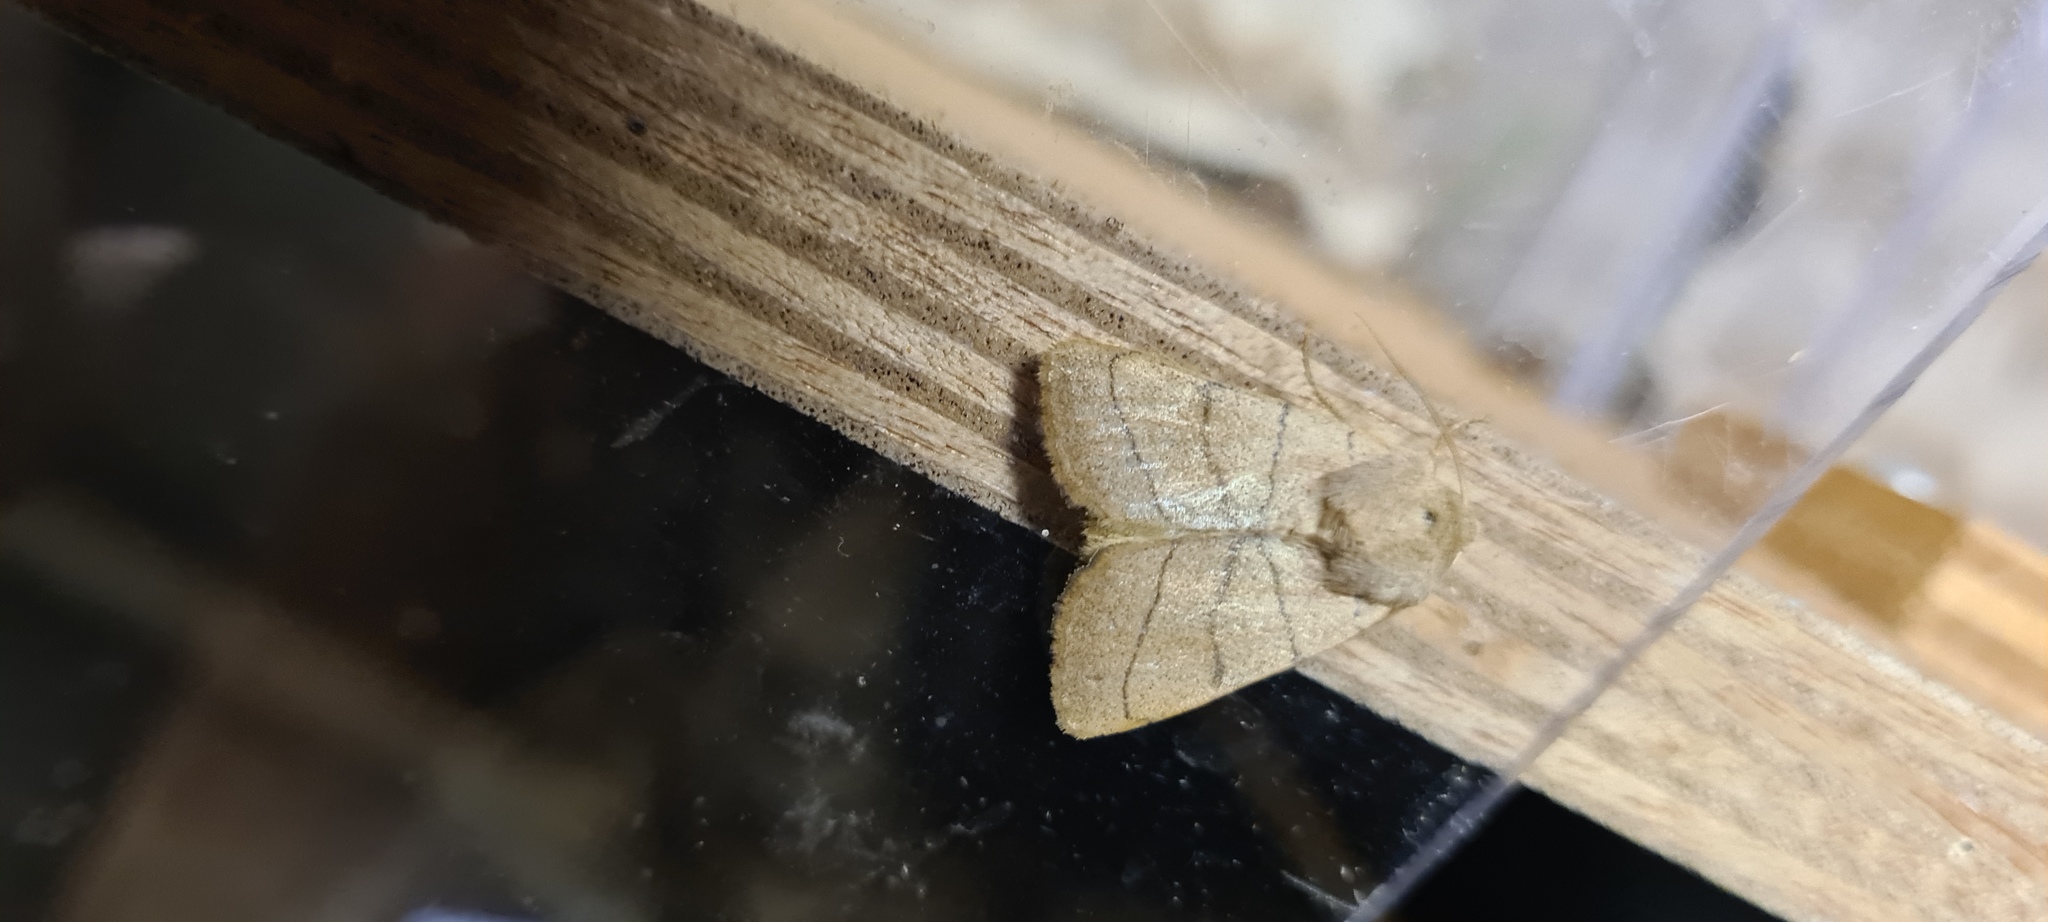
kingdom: Animalia
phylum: Arthropoda
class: Insecta
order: Lepidoptera
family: Noctuidae
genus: Charanyca
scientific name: Charanyca trigrammica
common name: Treble lines
